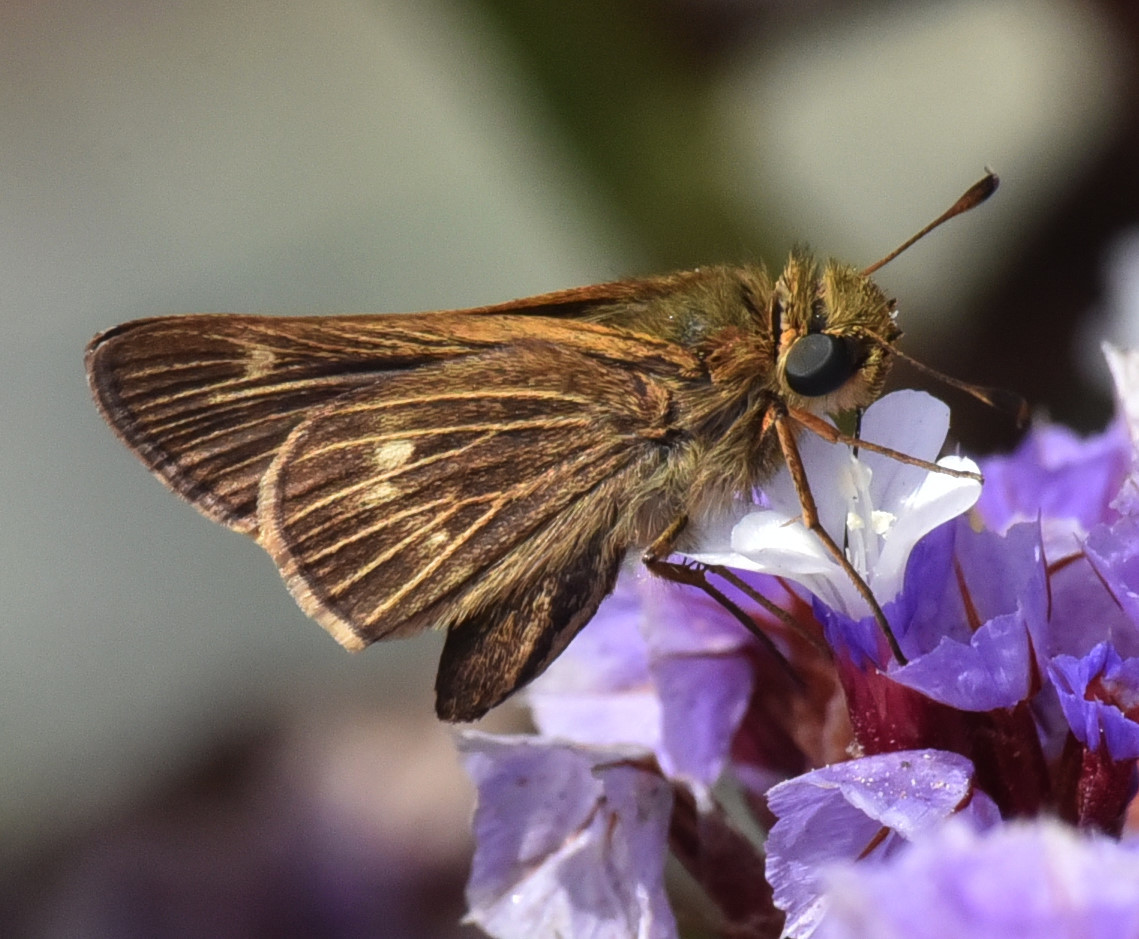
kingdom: Animalia
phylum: Arthropoda
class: Insecta
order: Lepidoptera
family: Hesperiidae
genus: Panoquina
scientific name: Panoquina errans
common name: Wandering skipper
